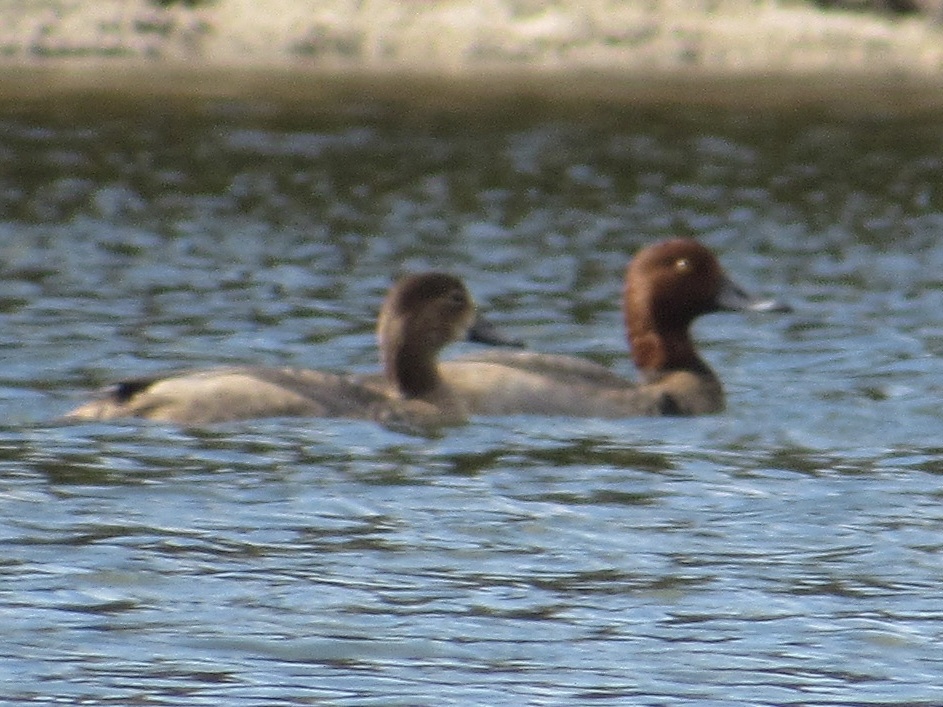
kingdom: Animalia
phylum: Chordata
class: Aves
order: Anseriformes
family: Anatidae
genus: Aythya
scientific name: Aythya americana
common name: Redhead
